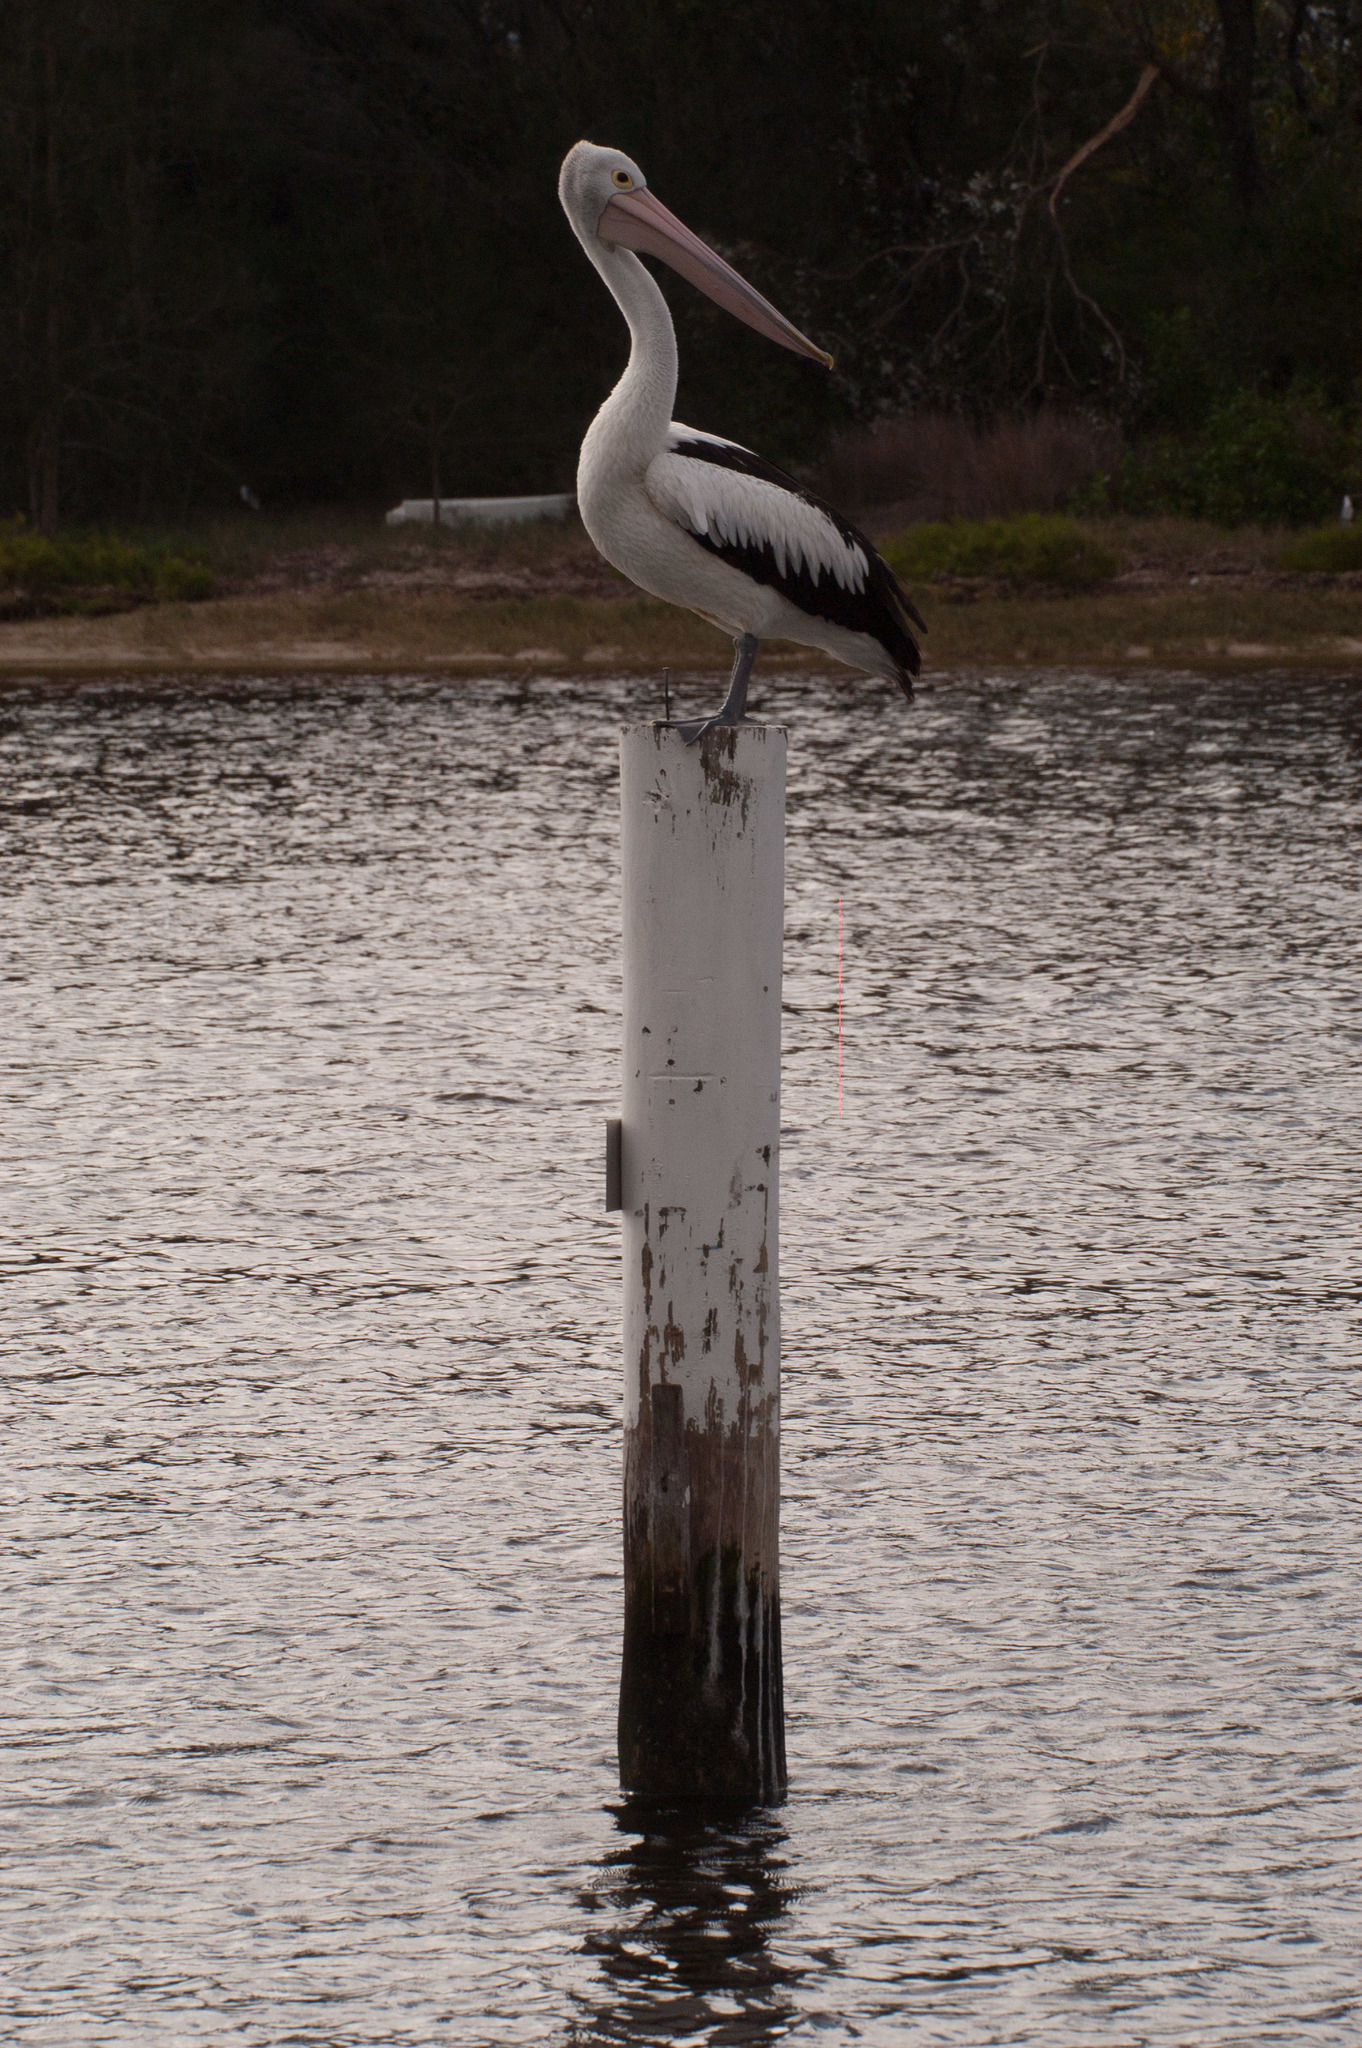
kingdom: Animalia
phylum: Chordata
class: Aves
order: Pelecaniformes
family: Pelecanidae
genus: Pelecanus
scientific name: Pelecanus conspicillatus
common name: Australian pelican
